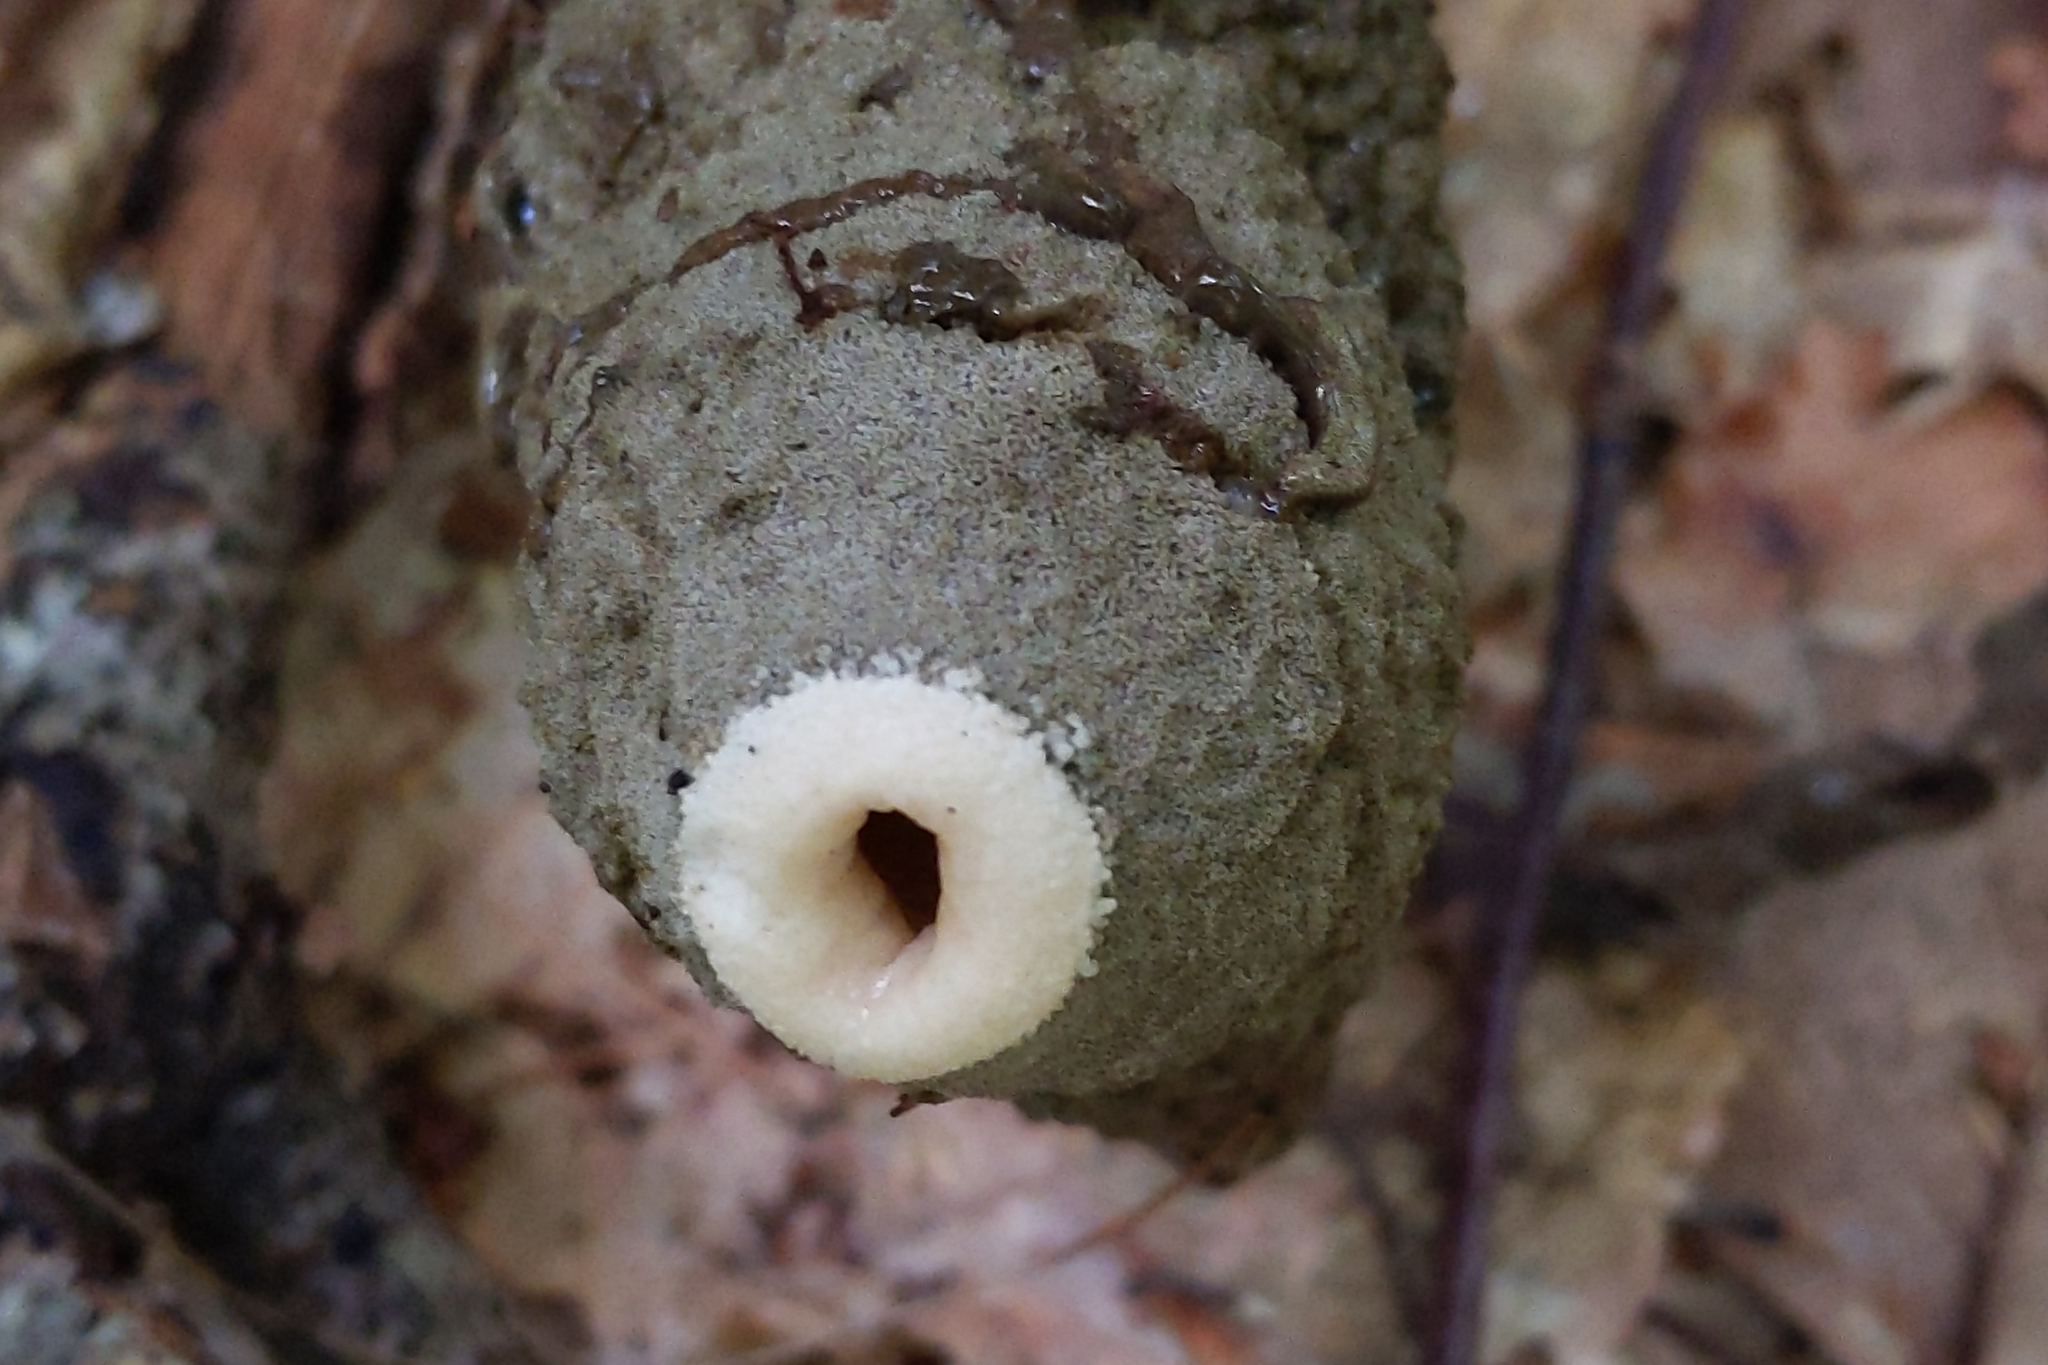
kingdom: Fungi
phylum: Basidiomycota
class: Agaricomycetes
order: Phallales
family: Phallaceae
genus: Phallus
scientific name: Phallus ravenelii
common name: Ravenel's stinkhorn
